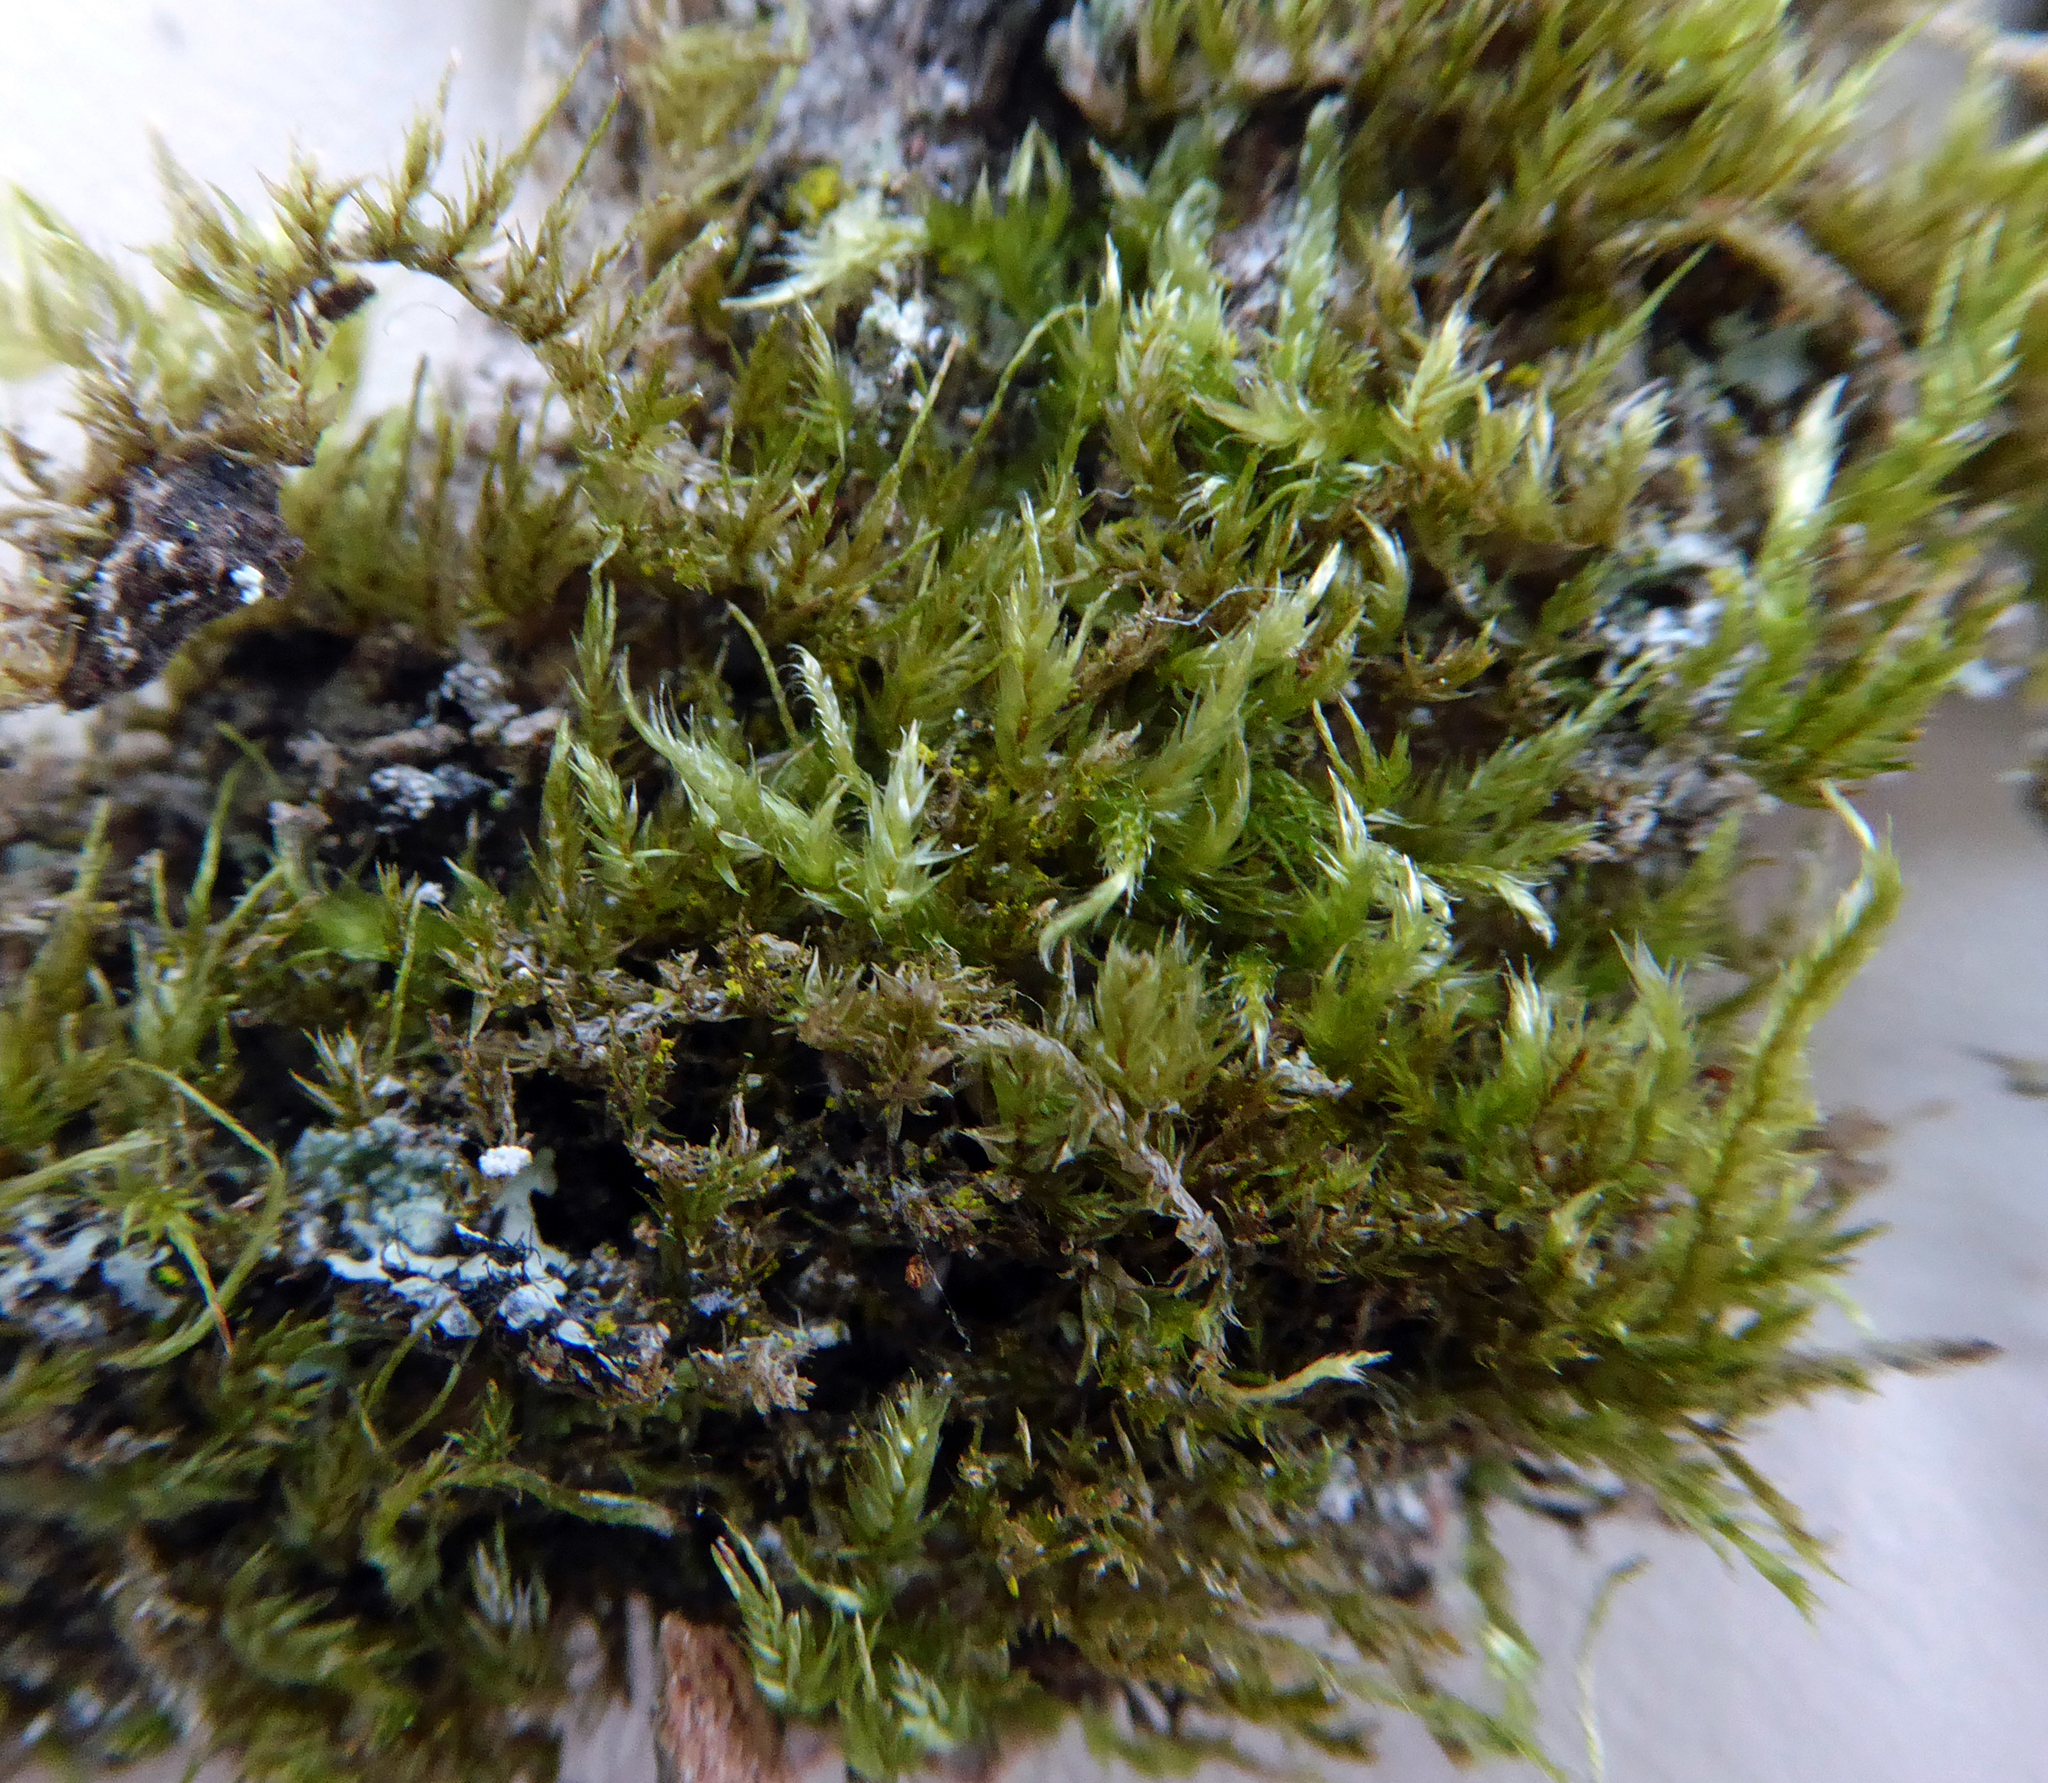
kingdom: Plantae
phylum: Bryophyta
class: Bryopsida
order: Hypnales
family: Pylaisiadelphaceae
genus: Wijkia
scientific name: Wijkia extenuata
